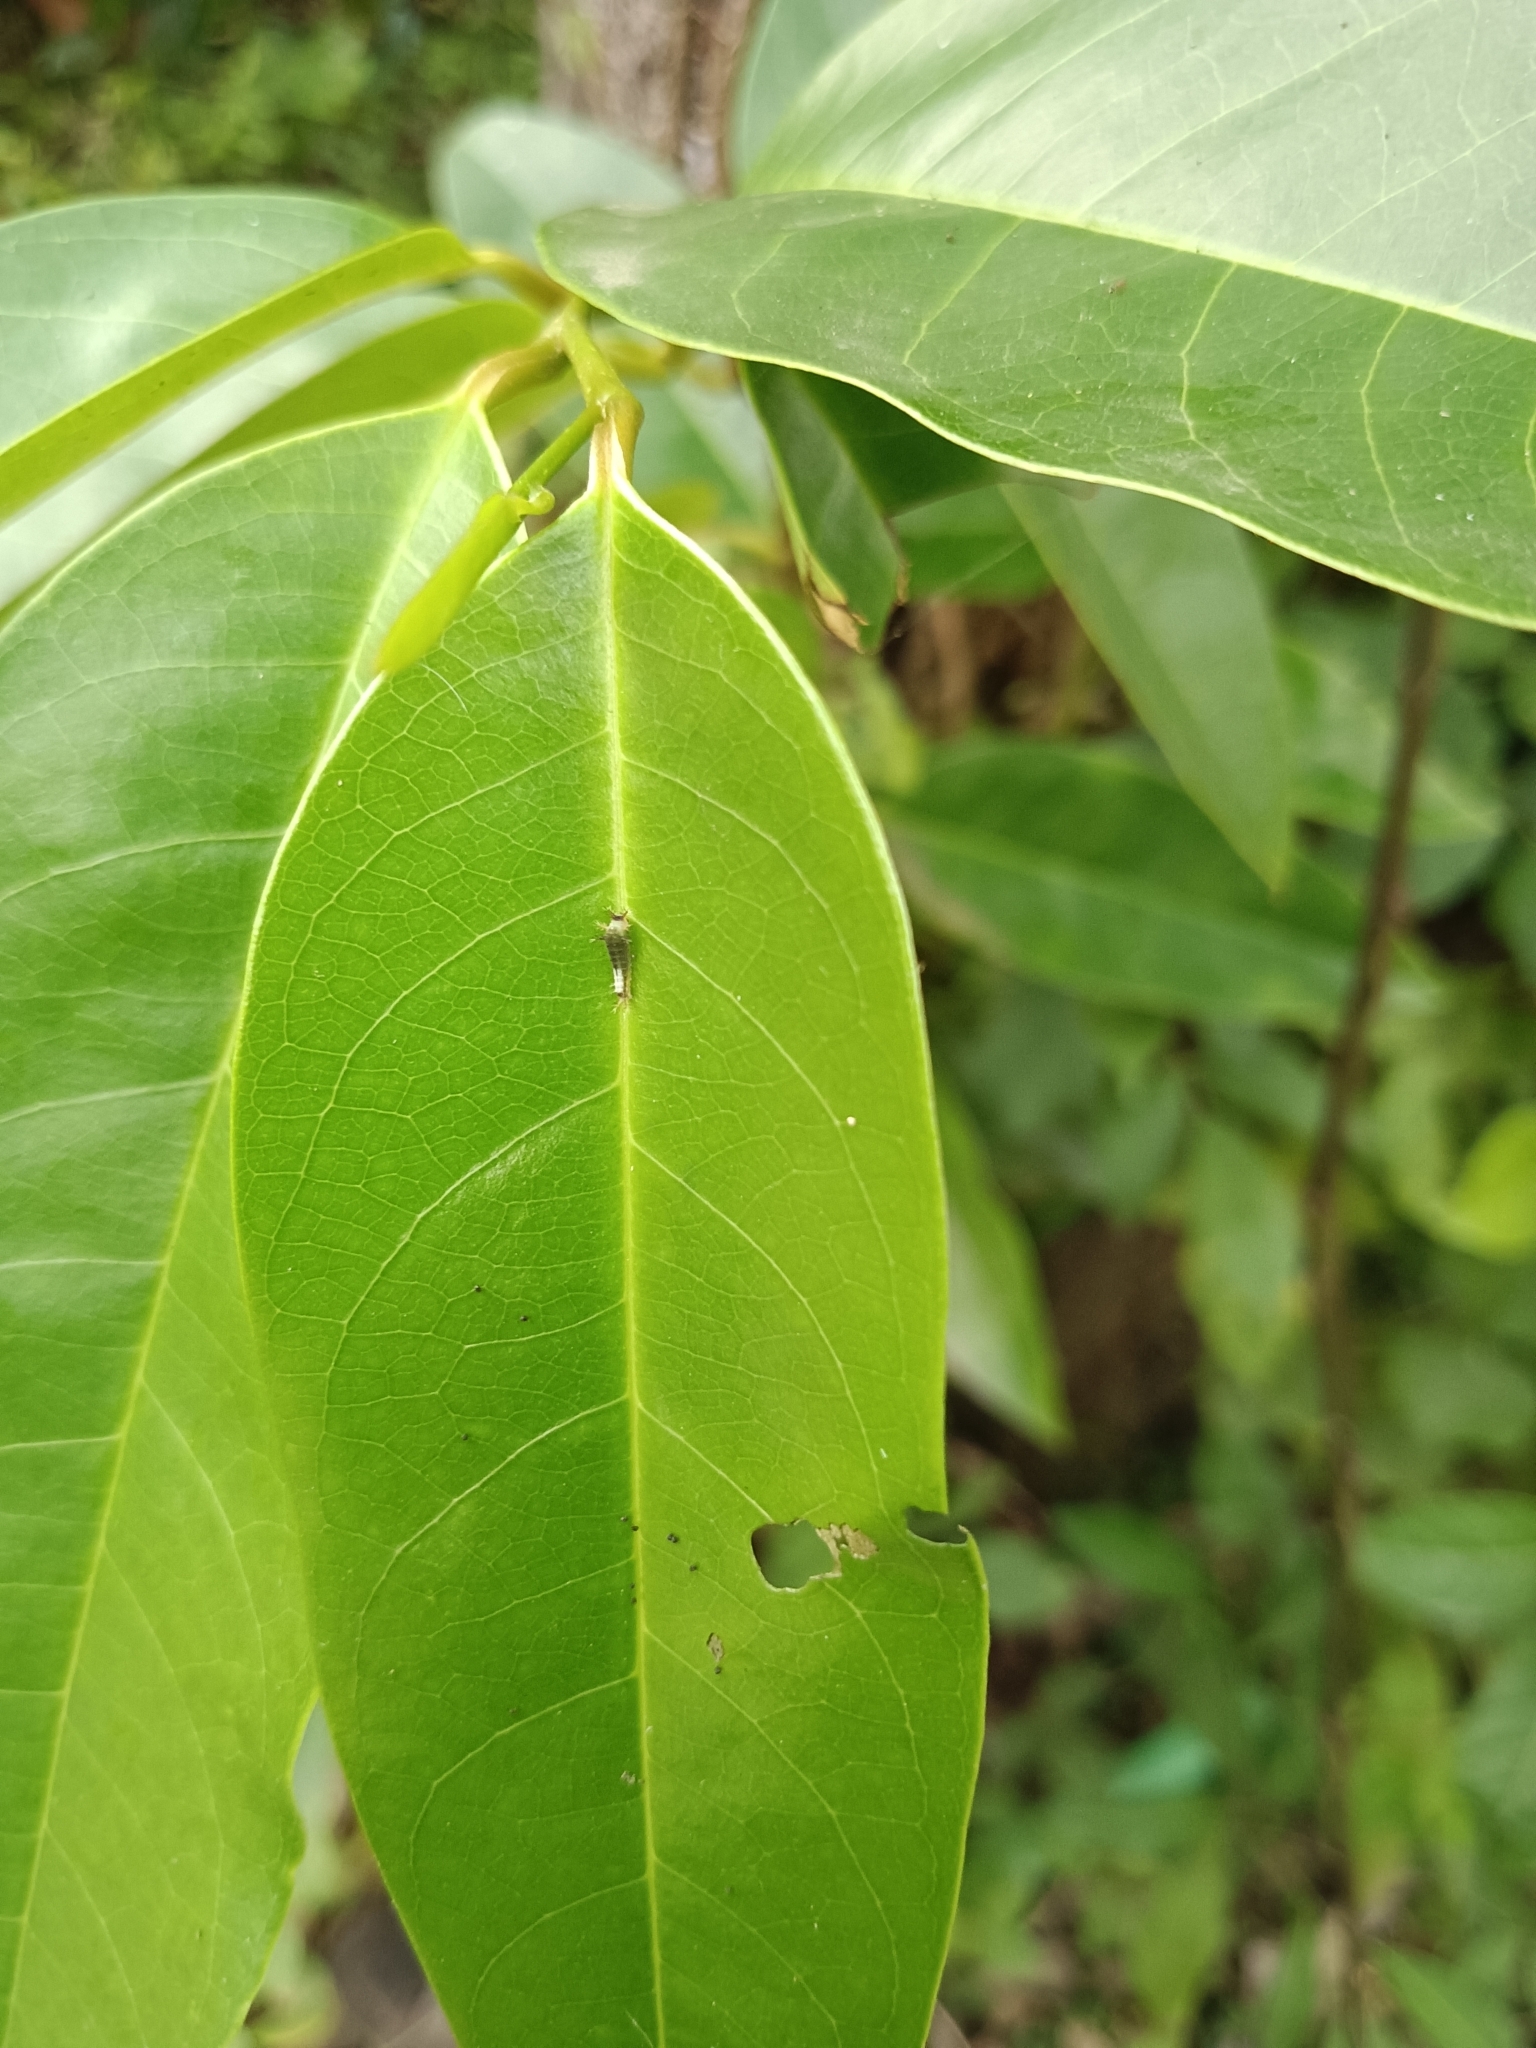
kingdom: Animalia
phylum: Arthropoda
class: Insecta
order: Lepidoptera
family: Papilionidae
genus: Graphium
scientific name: Graphium agamemnon
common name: Tailed jay
